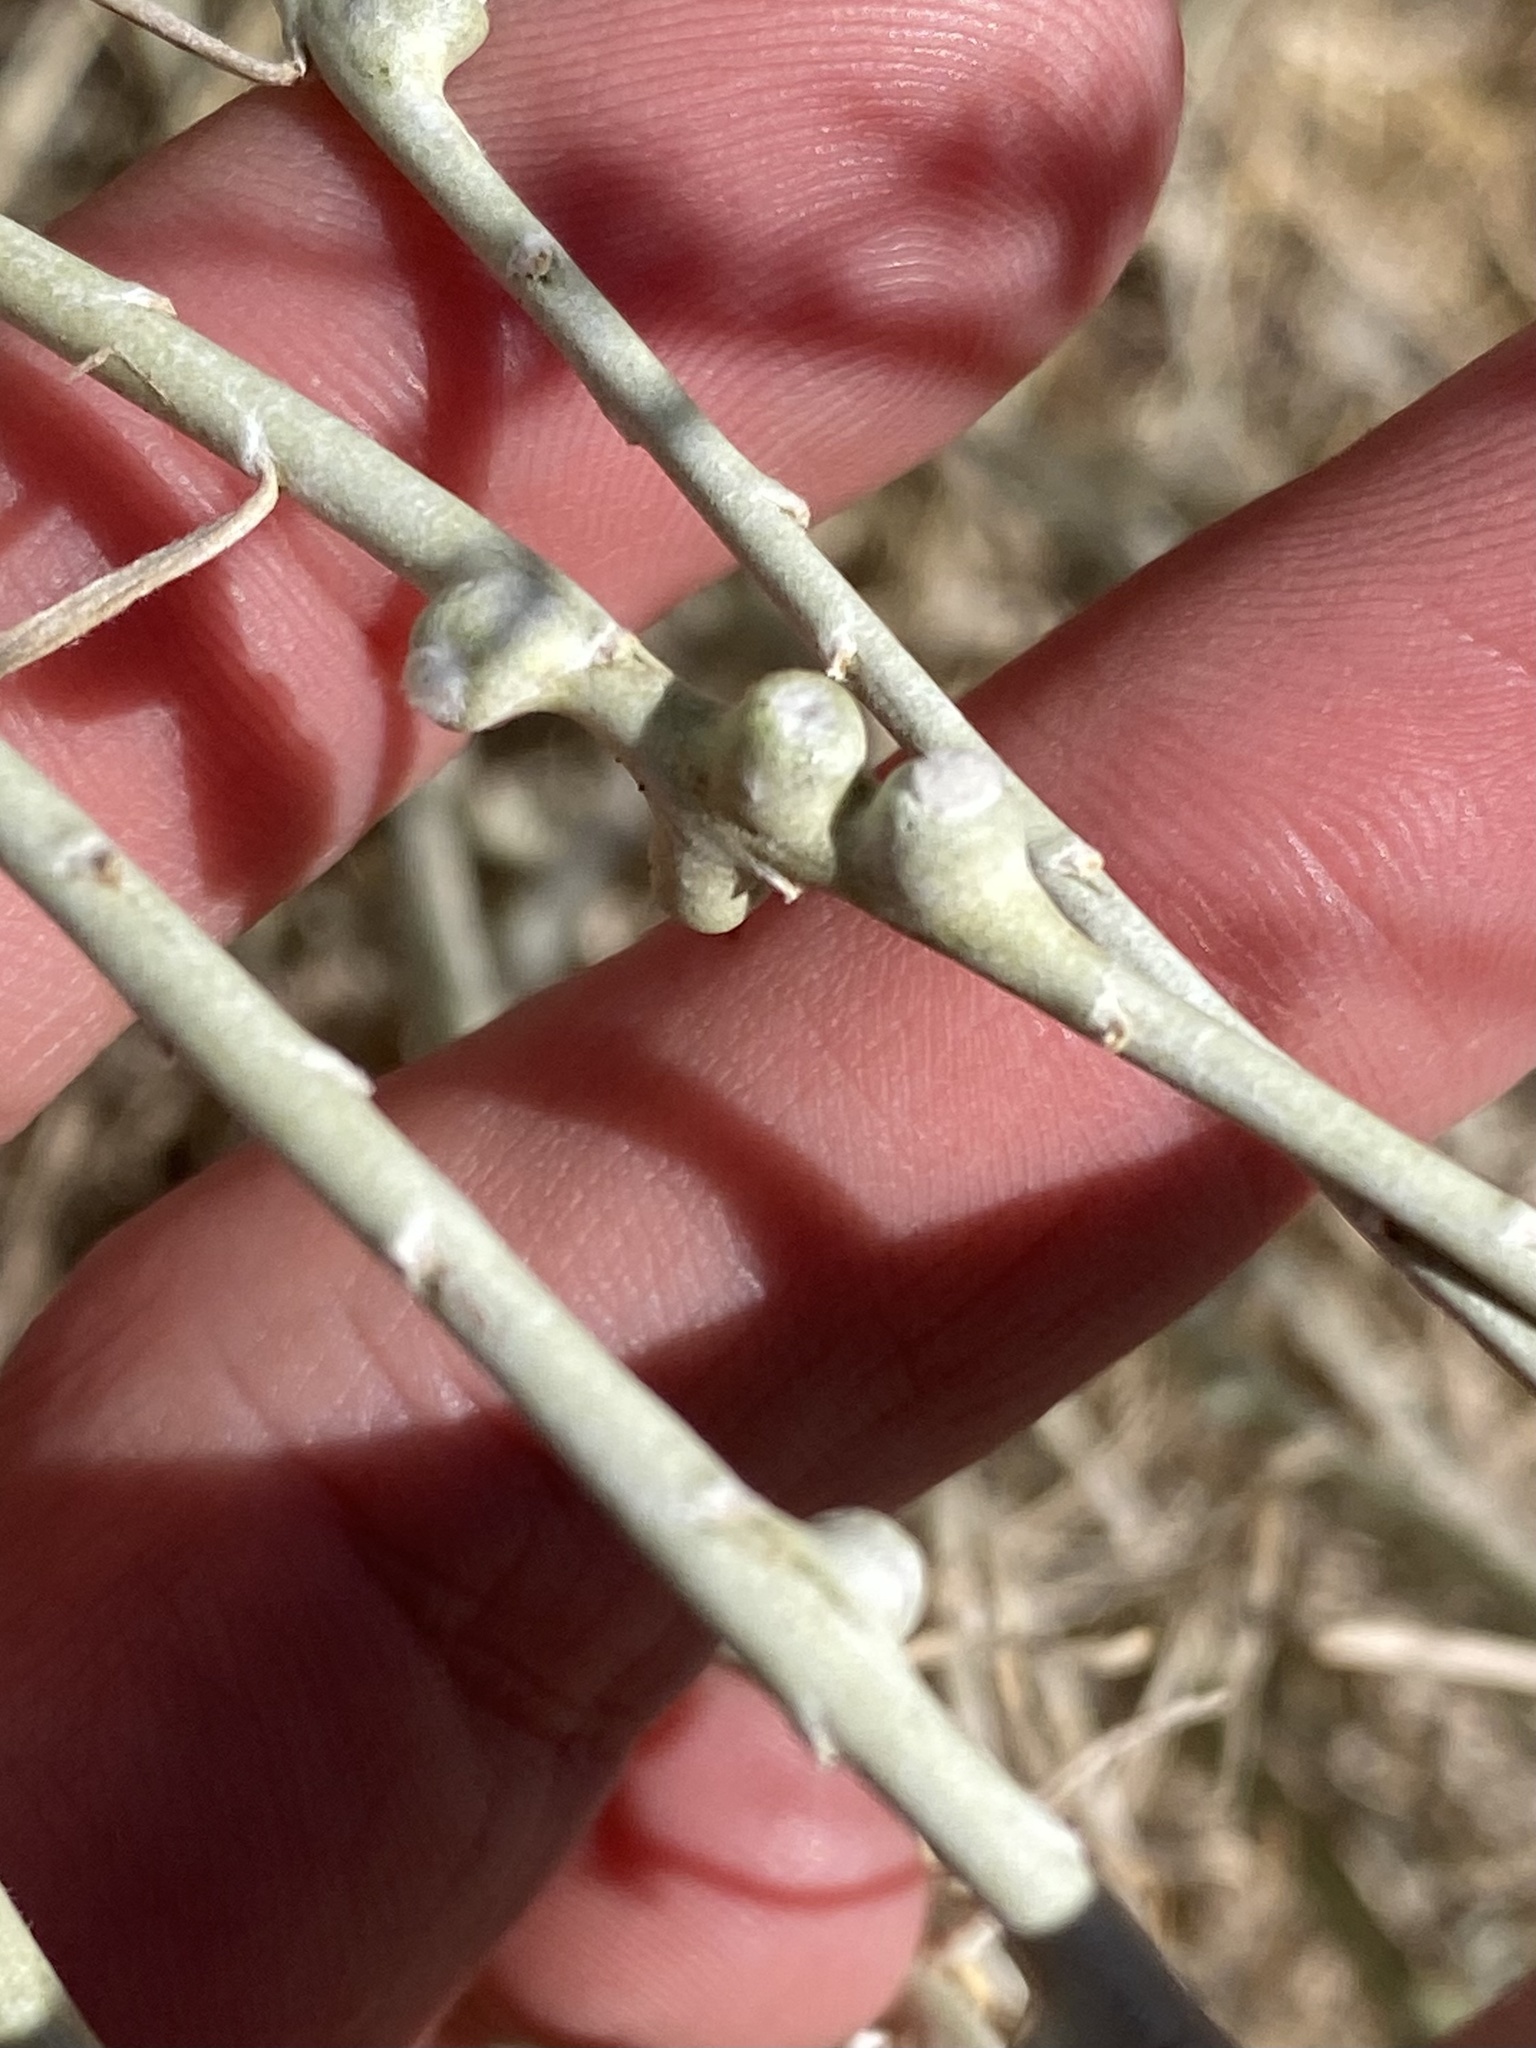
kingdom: Animalia
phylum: Arthropoda
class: Insecta
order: Diptera
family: Cecidomyiidae
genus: Rhopalomyia
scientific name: Rhopalomyia chrysothamni
